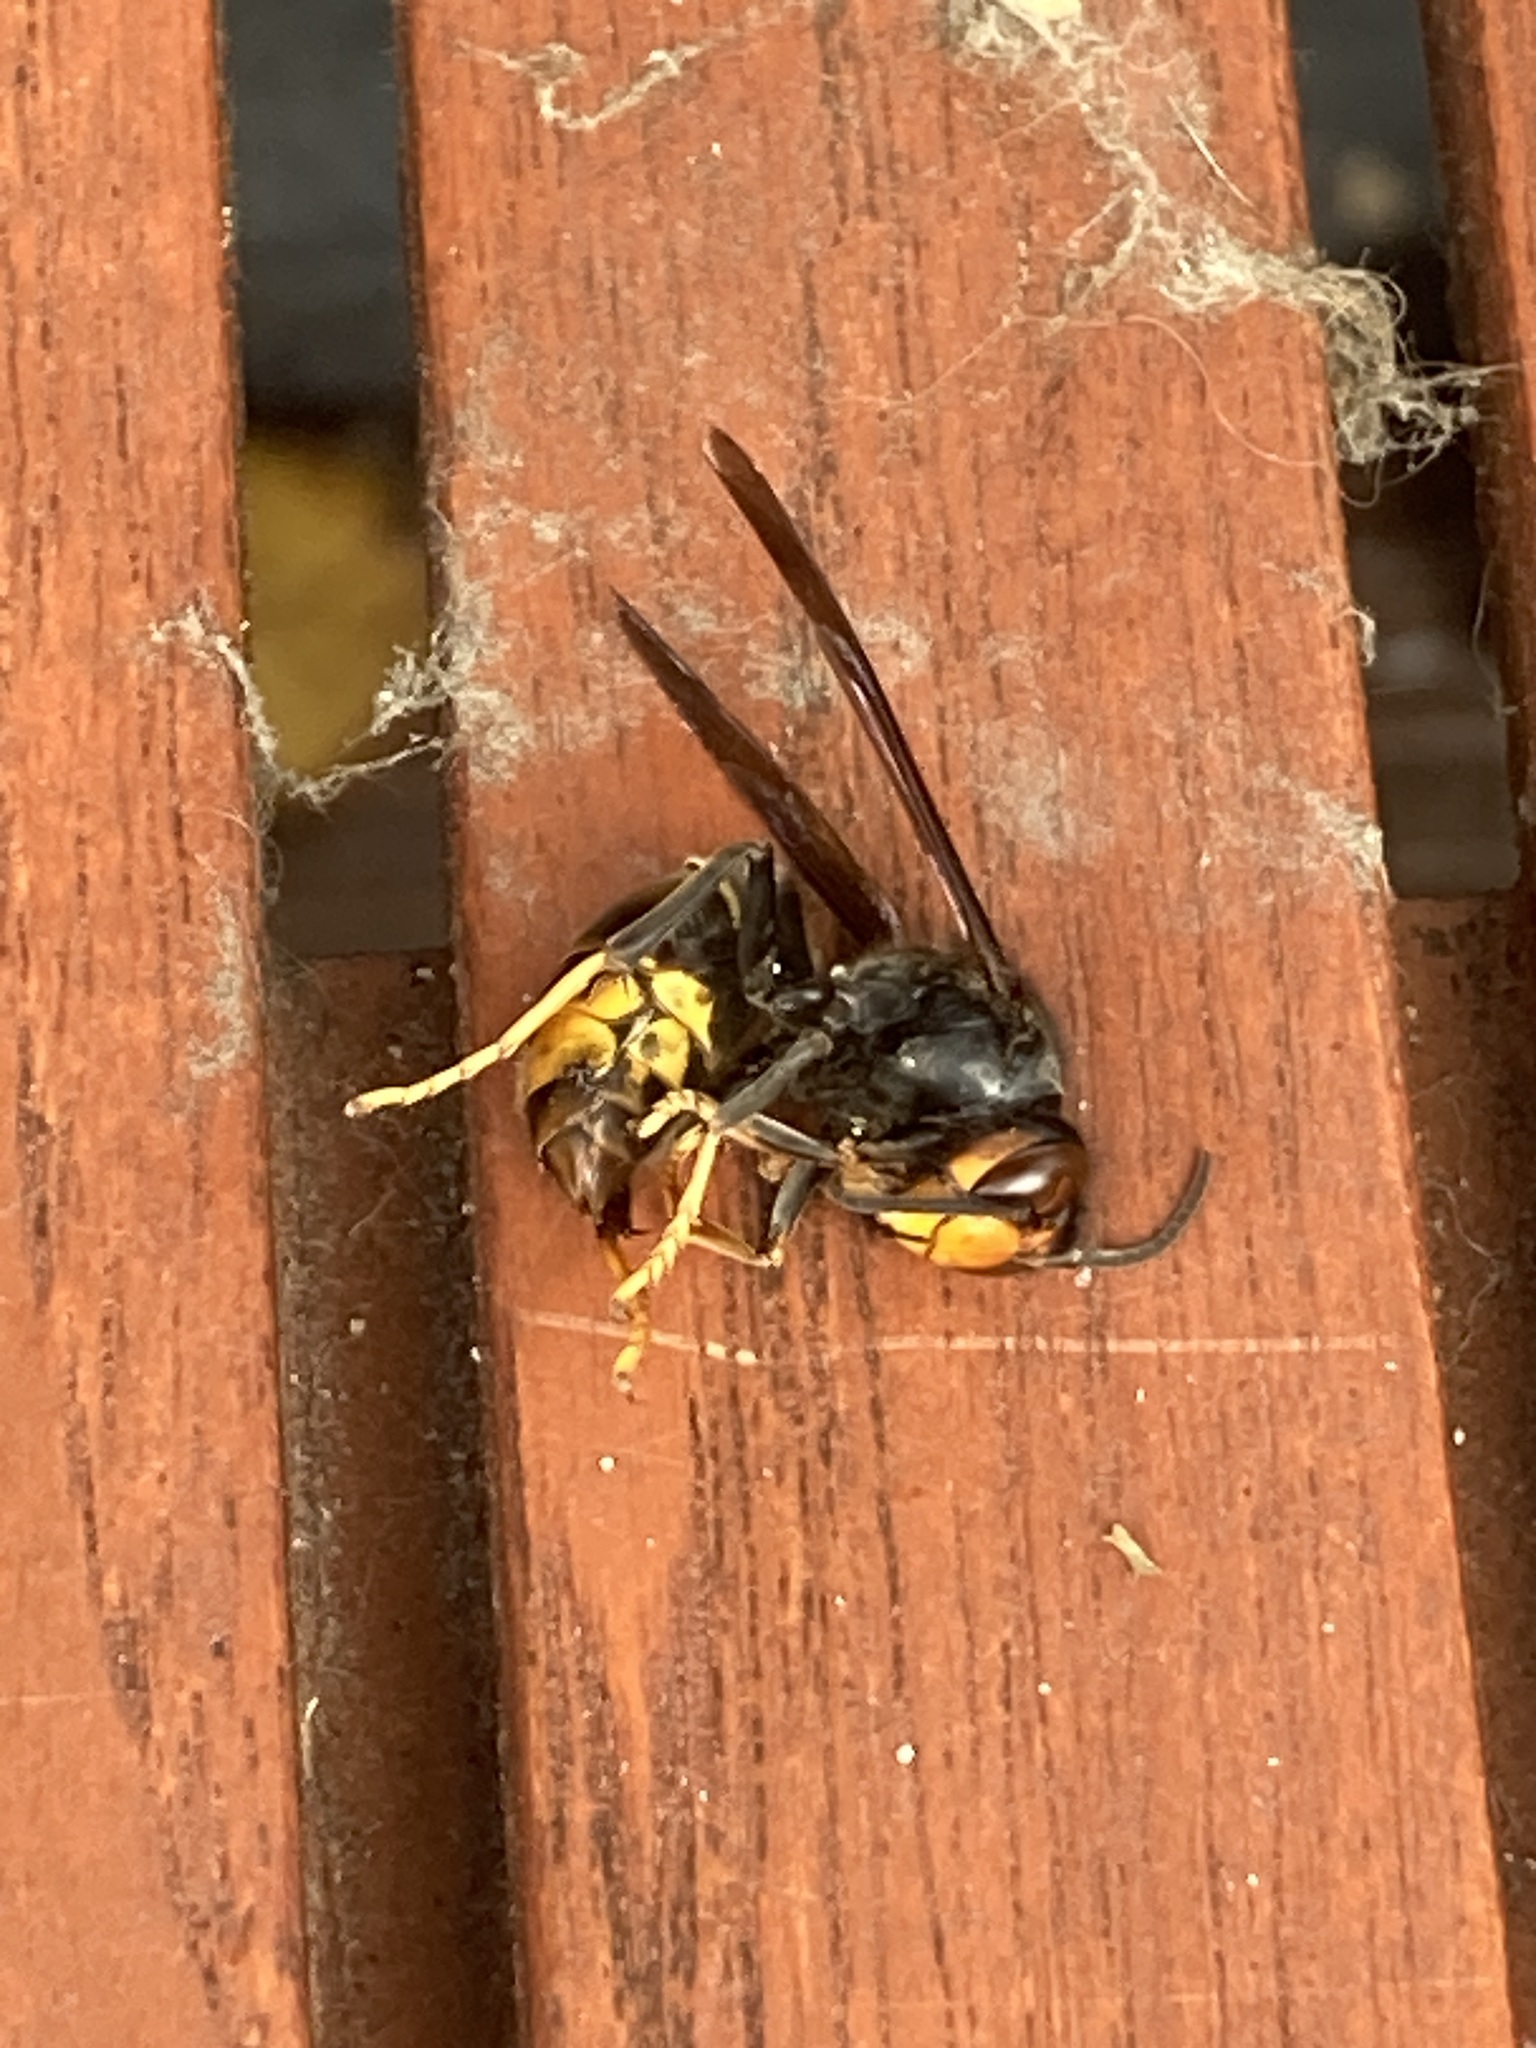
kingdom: Animalia
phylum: Arthropoda
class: Insecta
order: Hymenoptera
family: Vespidae
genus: Vespa
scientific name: Vespa velutina
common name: Asian hornet
